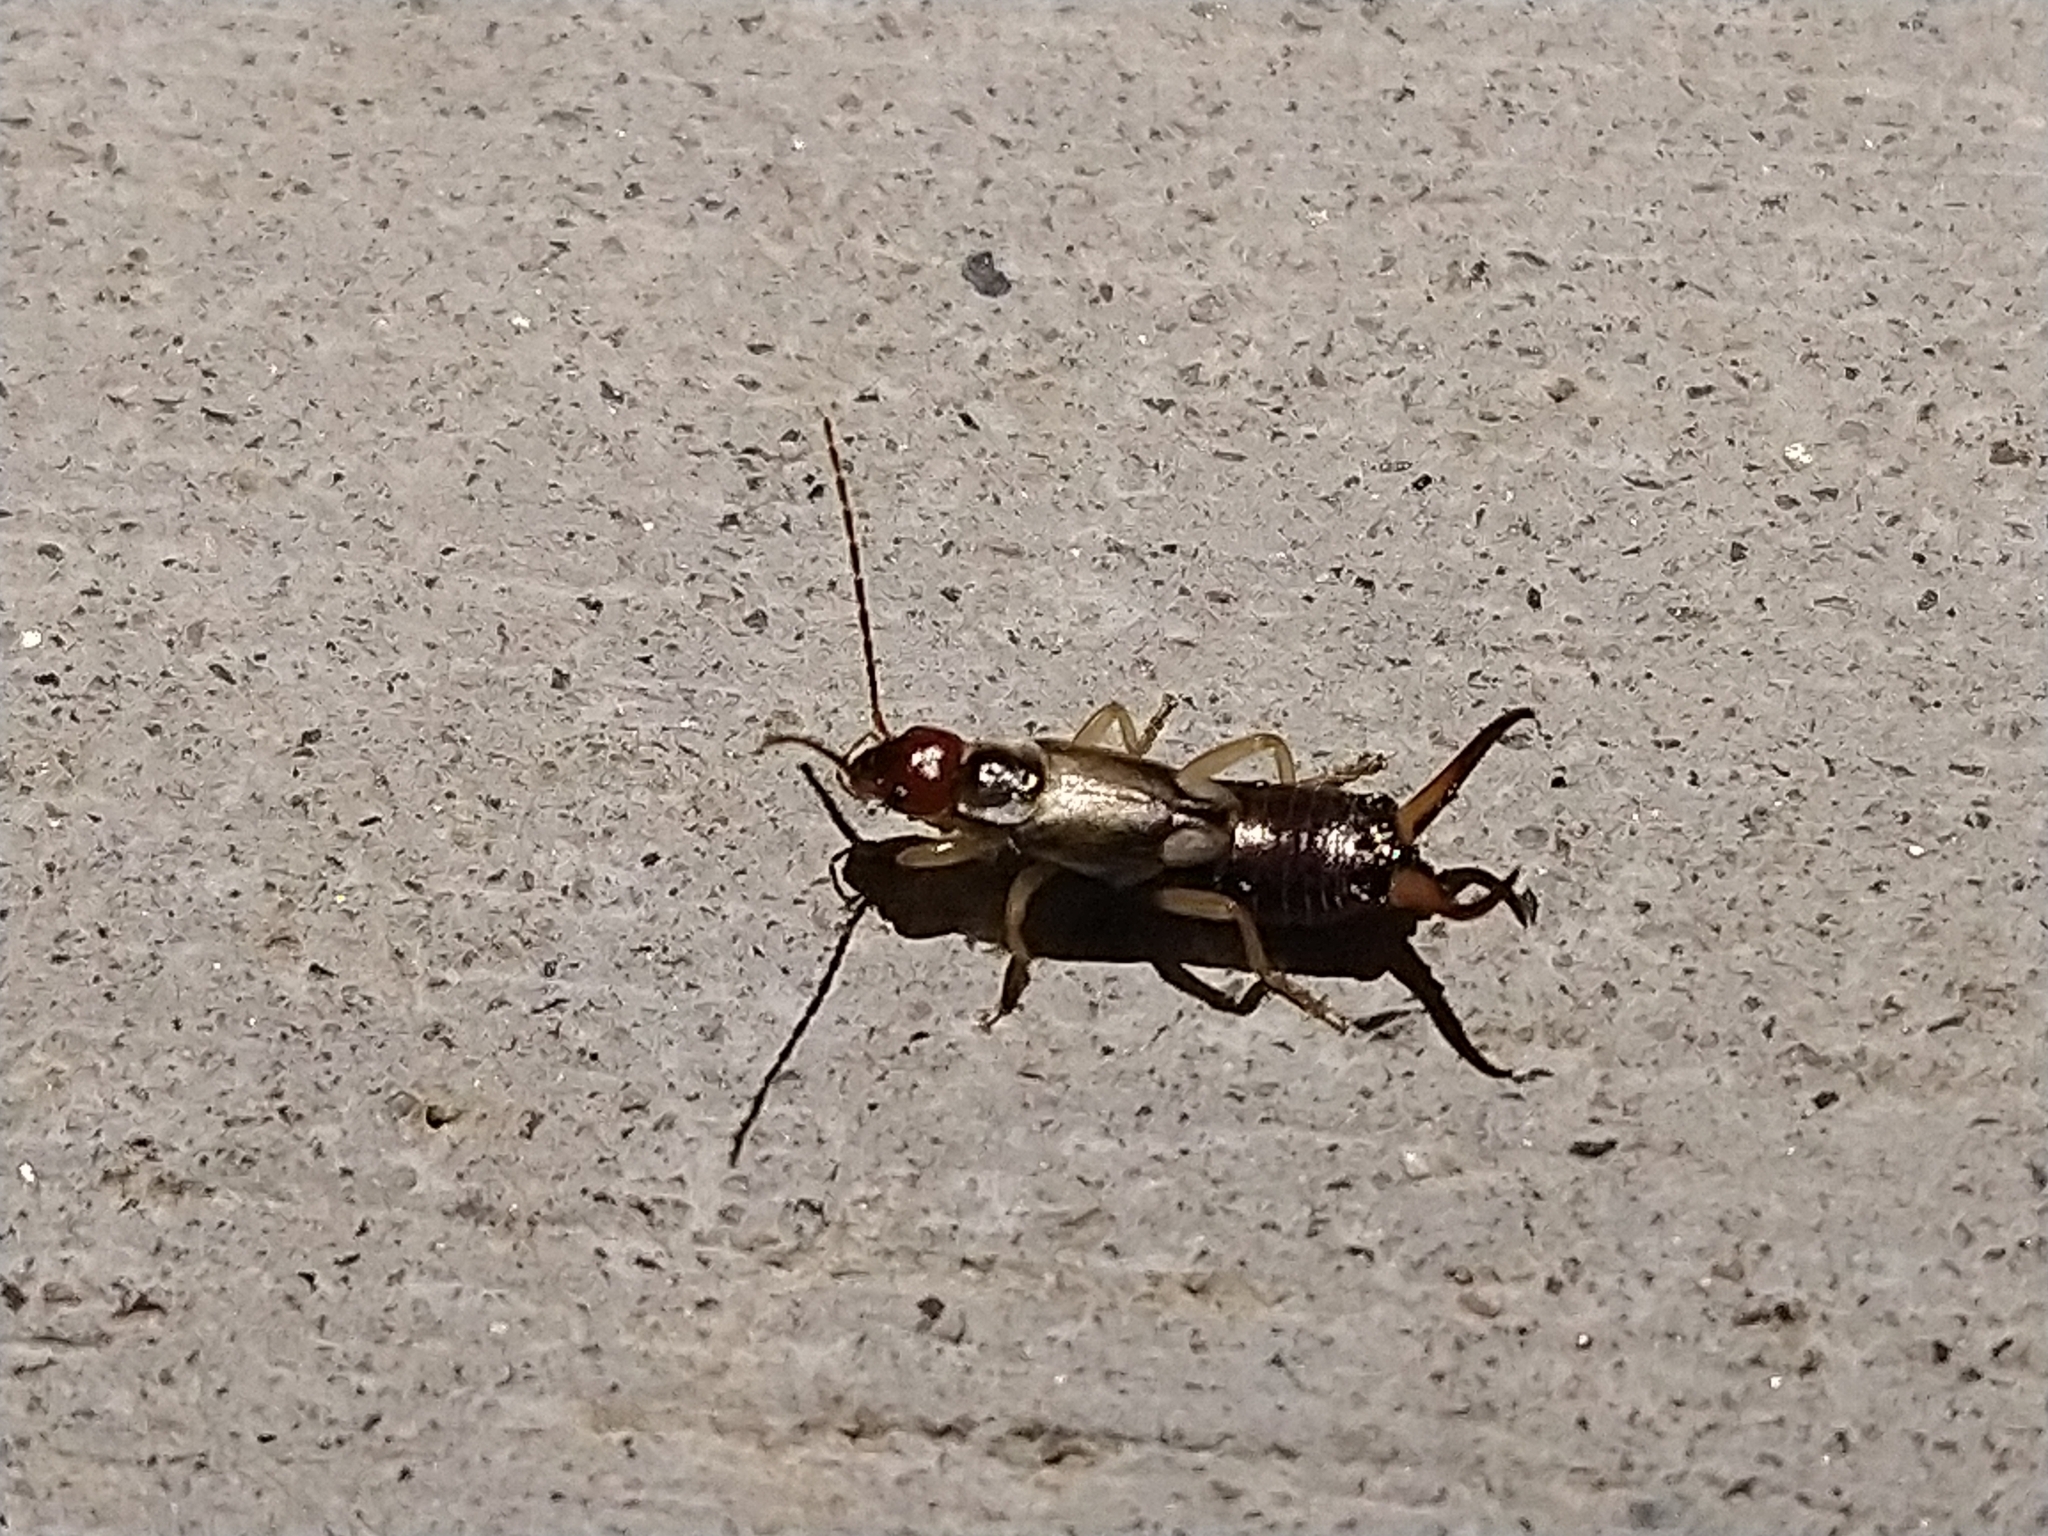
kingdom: Animalia
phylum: Arthropoda
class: Insecta
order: Dermaptera
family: Forficulidae
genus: Forficula
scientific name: Forficula dentata
